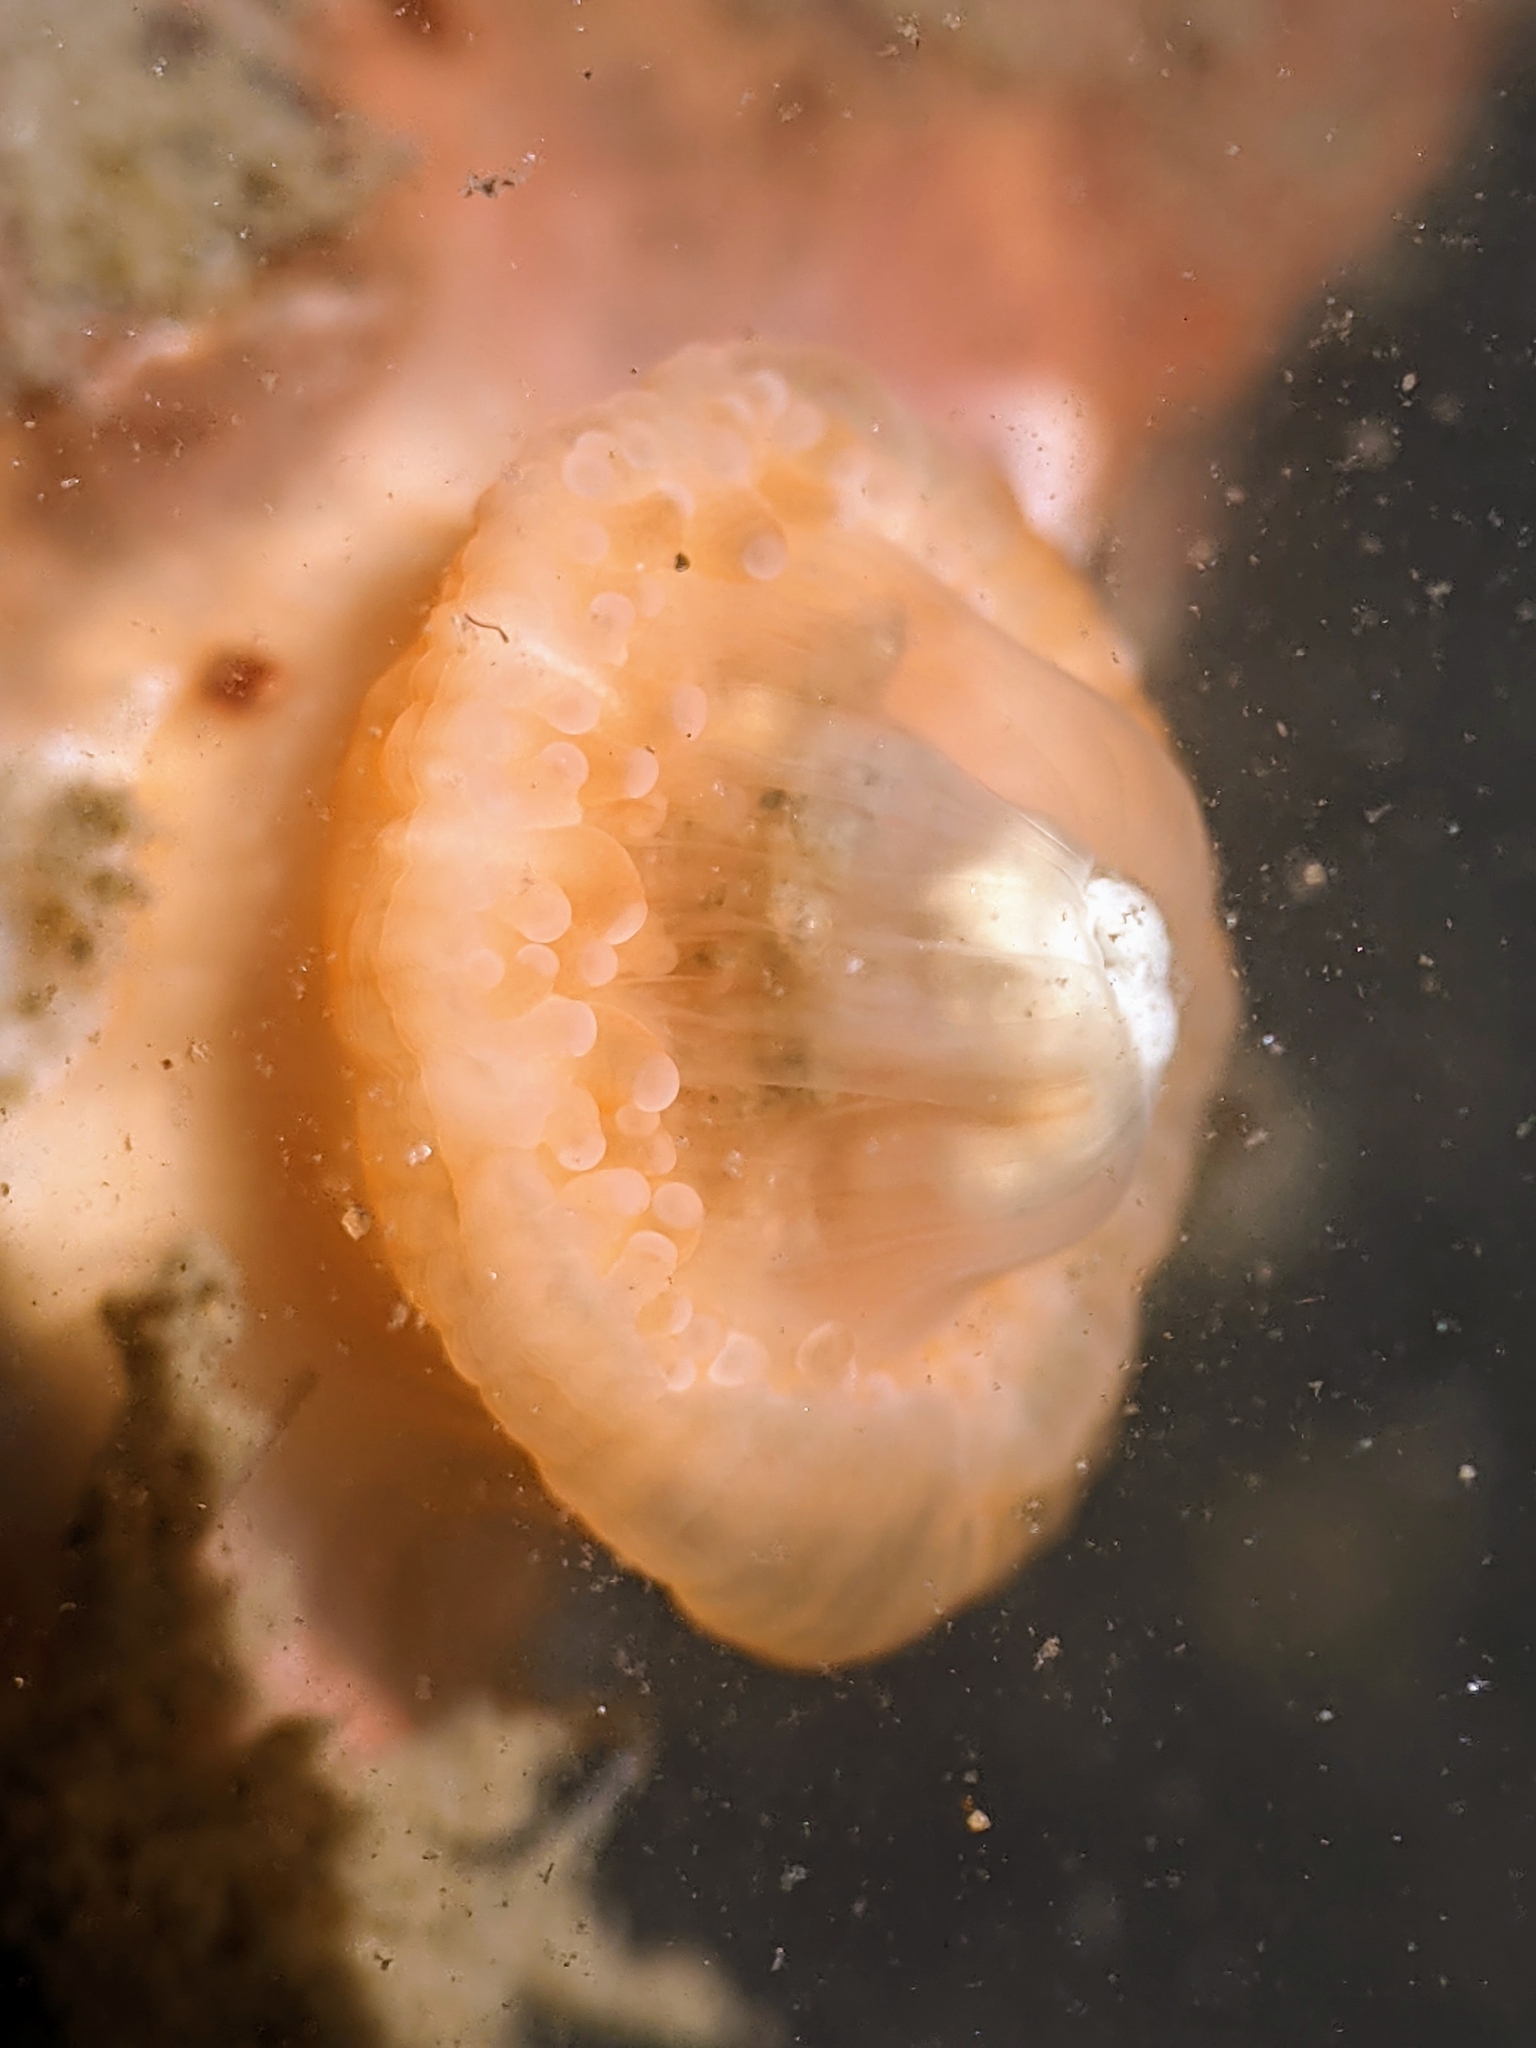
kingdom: Animalia
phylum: Cnidaria
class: Anthozoa
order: Scleractinia
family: Astrangiidae
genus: Astrangia
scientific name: Astrangia haimei
